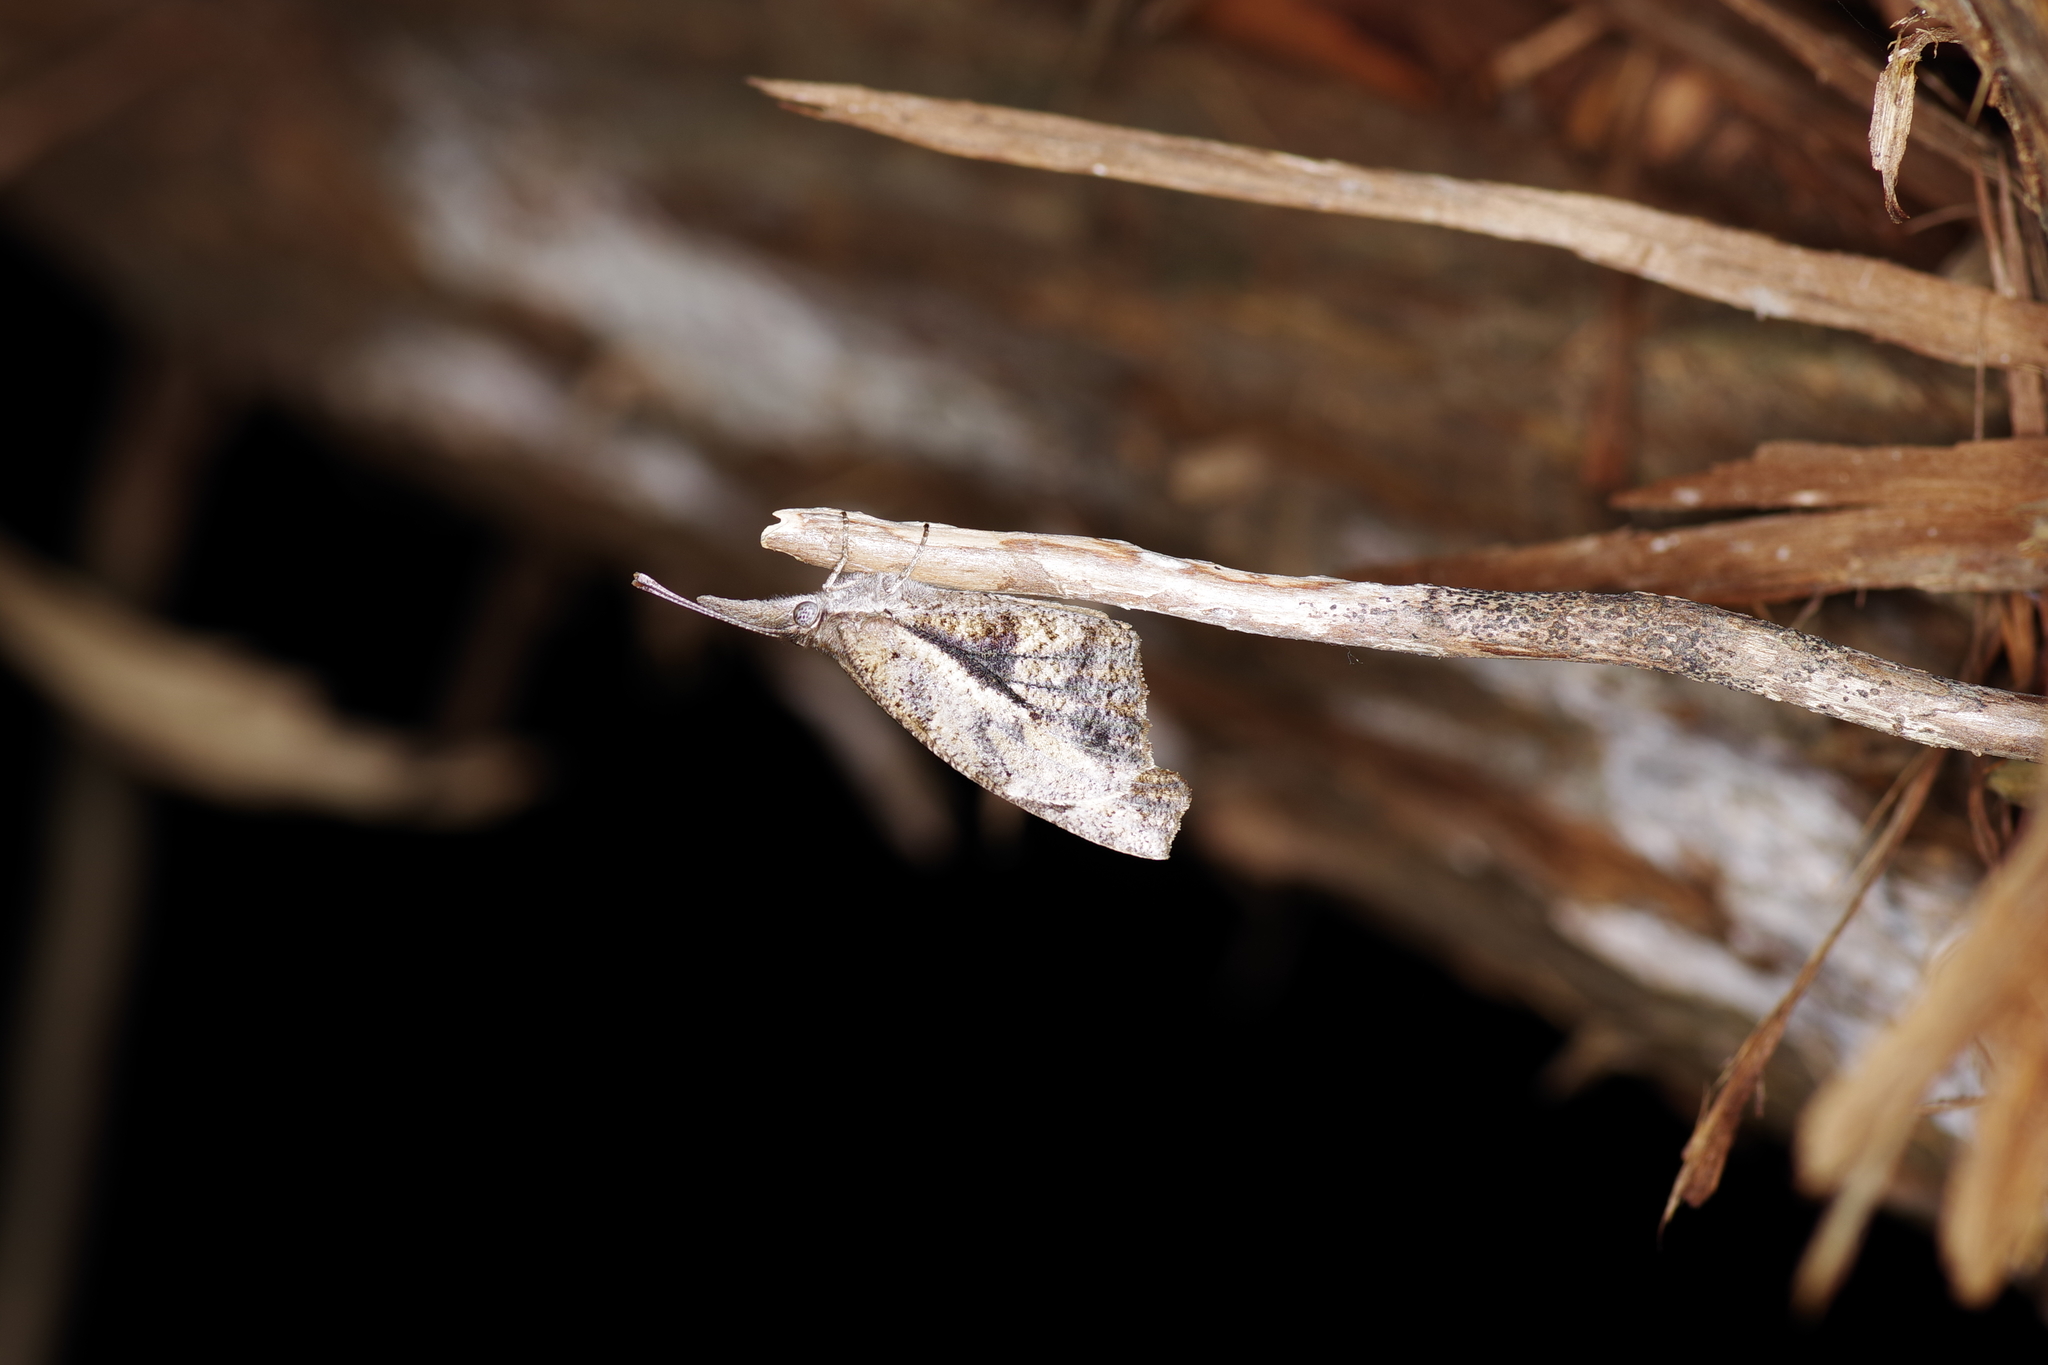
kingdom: Animalia
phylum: Arthropoda
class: Insecta
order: Lepidoptera
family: Nymphalidae
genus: Libytheana
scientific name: Libytheana carinenta
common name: American snout
